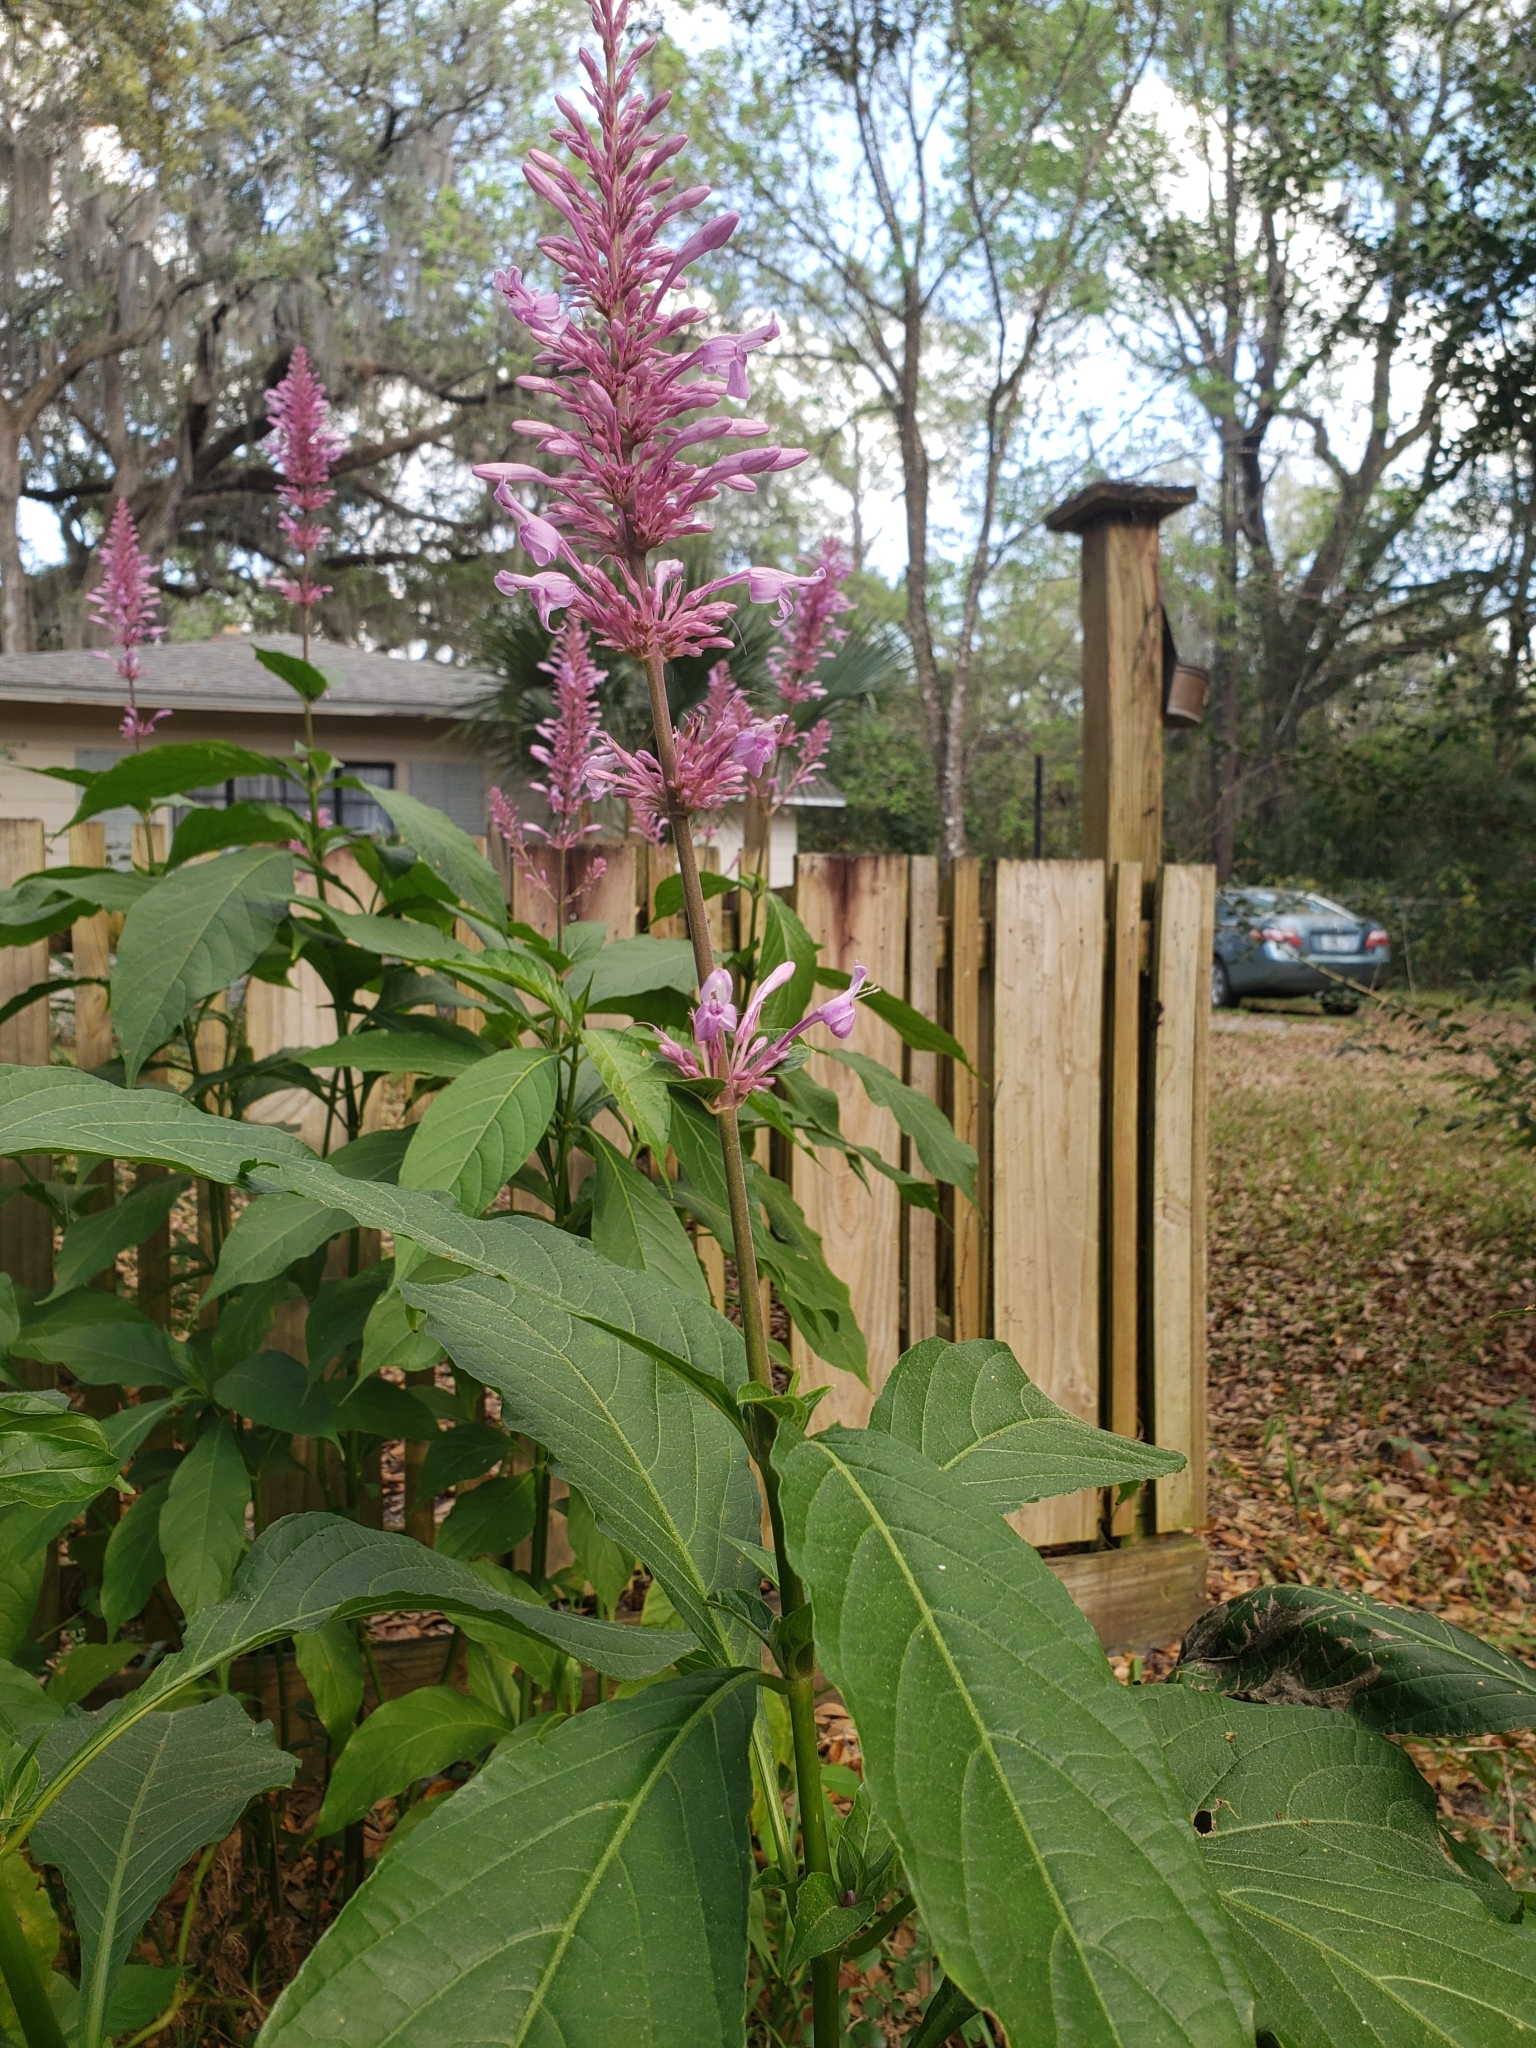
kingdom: Plantae
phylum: Tracheophyta
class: Magnoliopsida
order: Lamiales
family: Acanthaceae
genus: Odontonema
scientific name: Odontonema callistachyum
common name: Firespike
